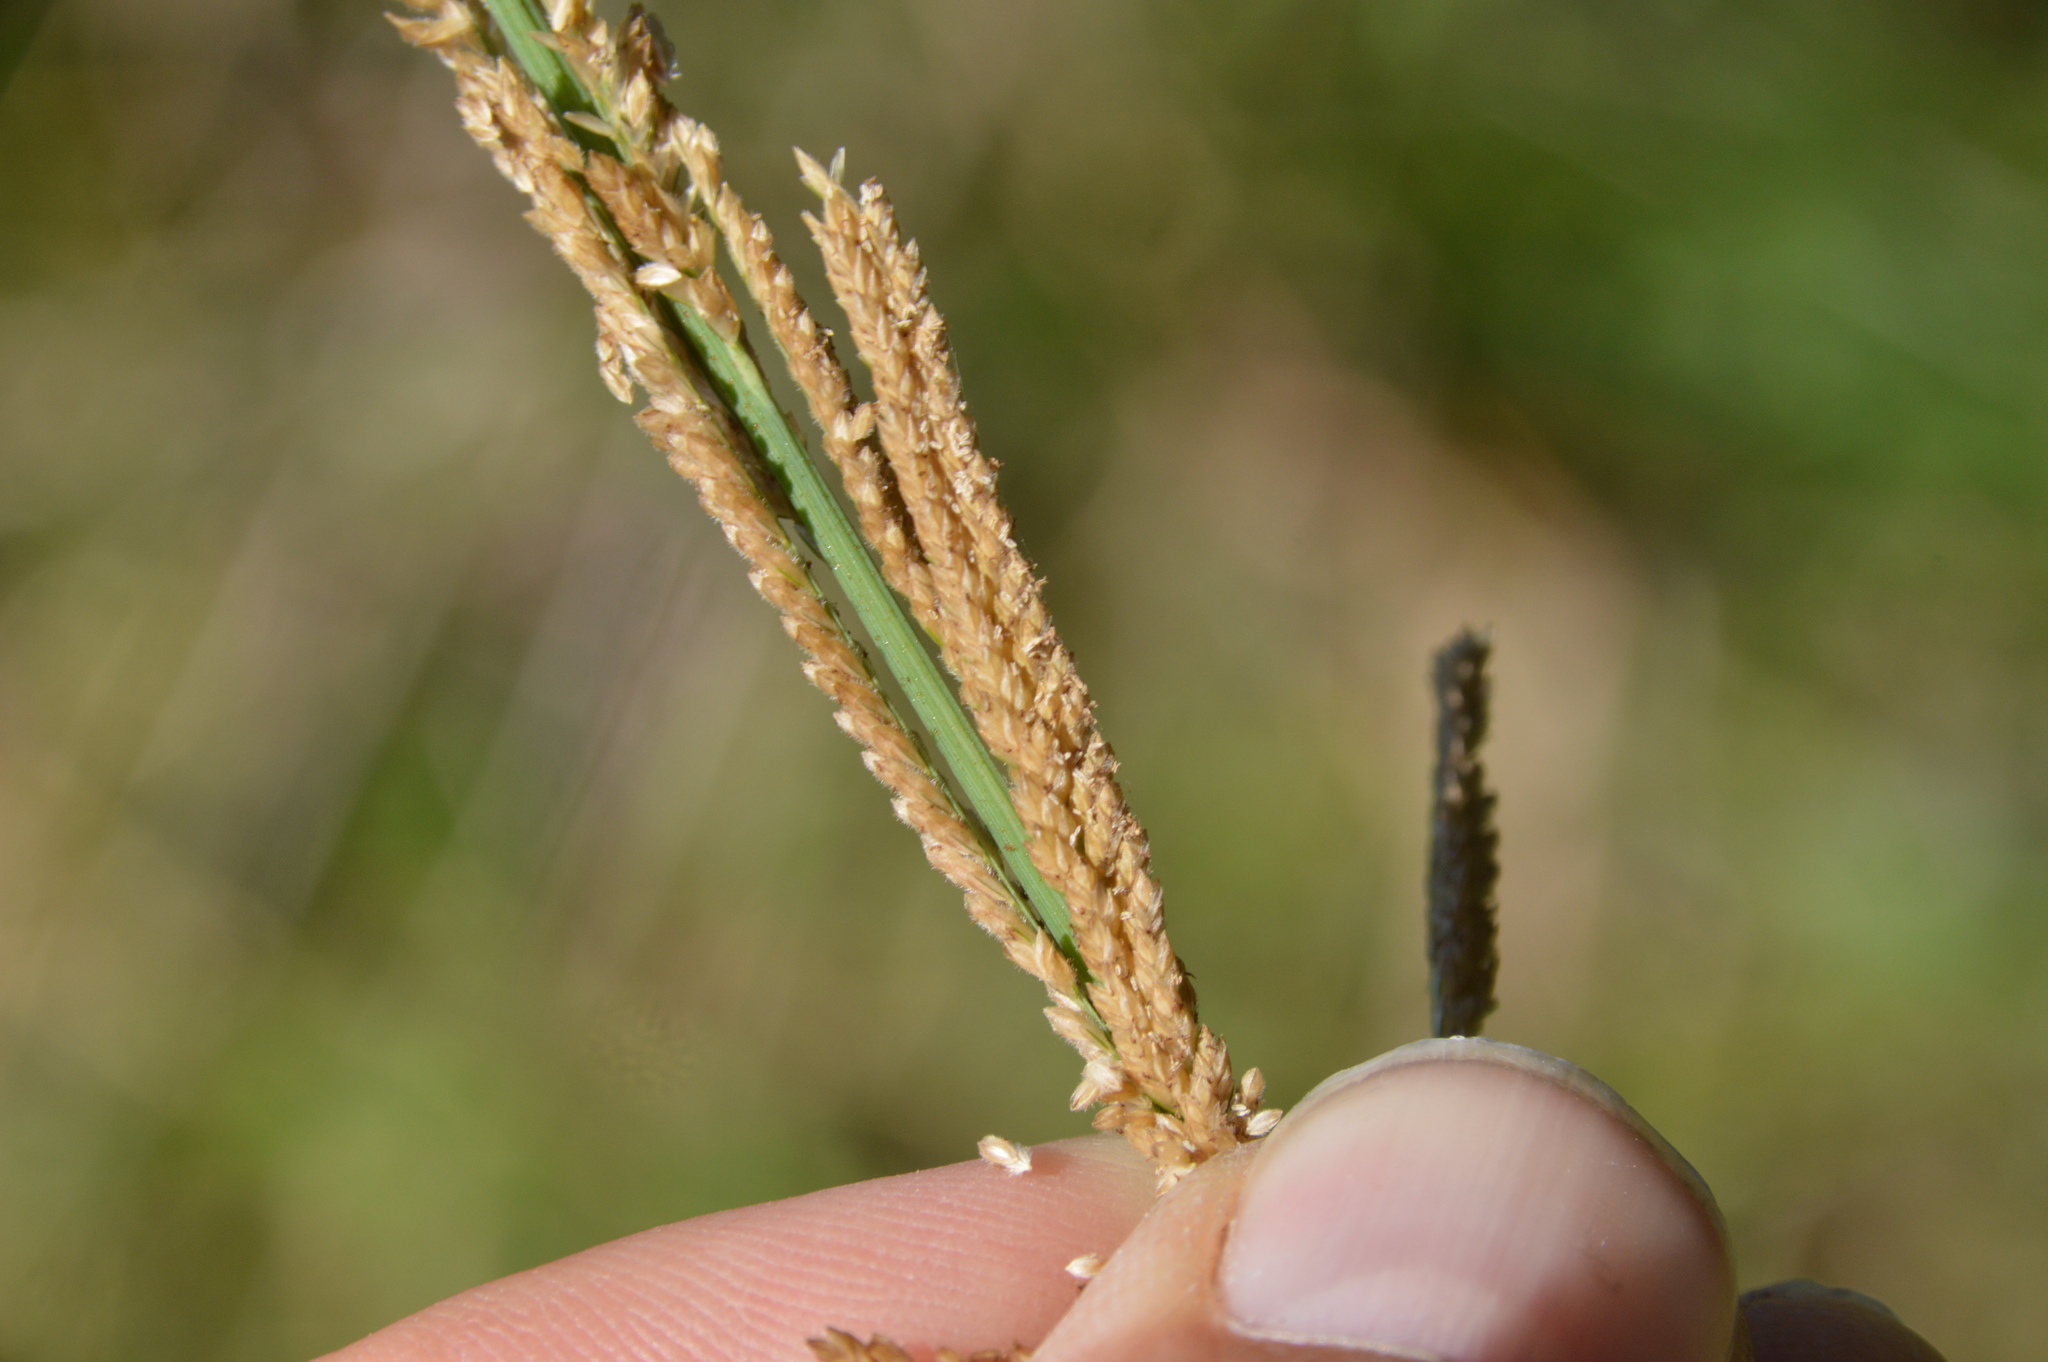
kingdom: Plantae
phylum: Tracheophyta
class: Liliopsida
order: Poales
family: Poaceae
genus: Leptochloa
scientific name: Leptochloa nealleyi
